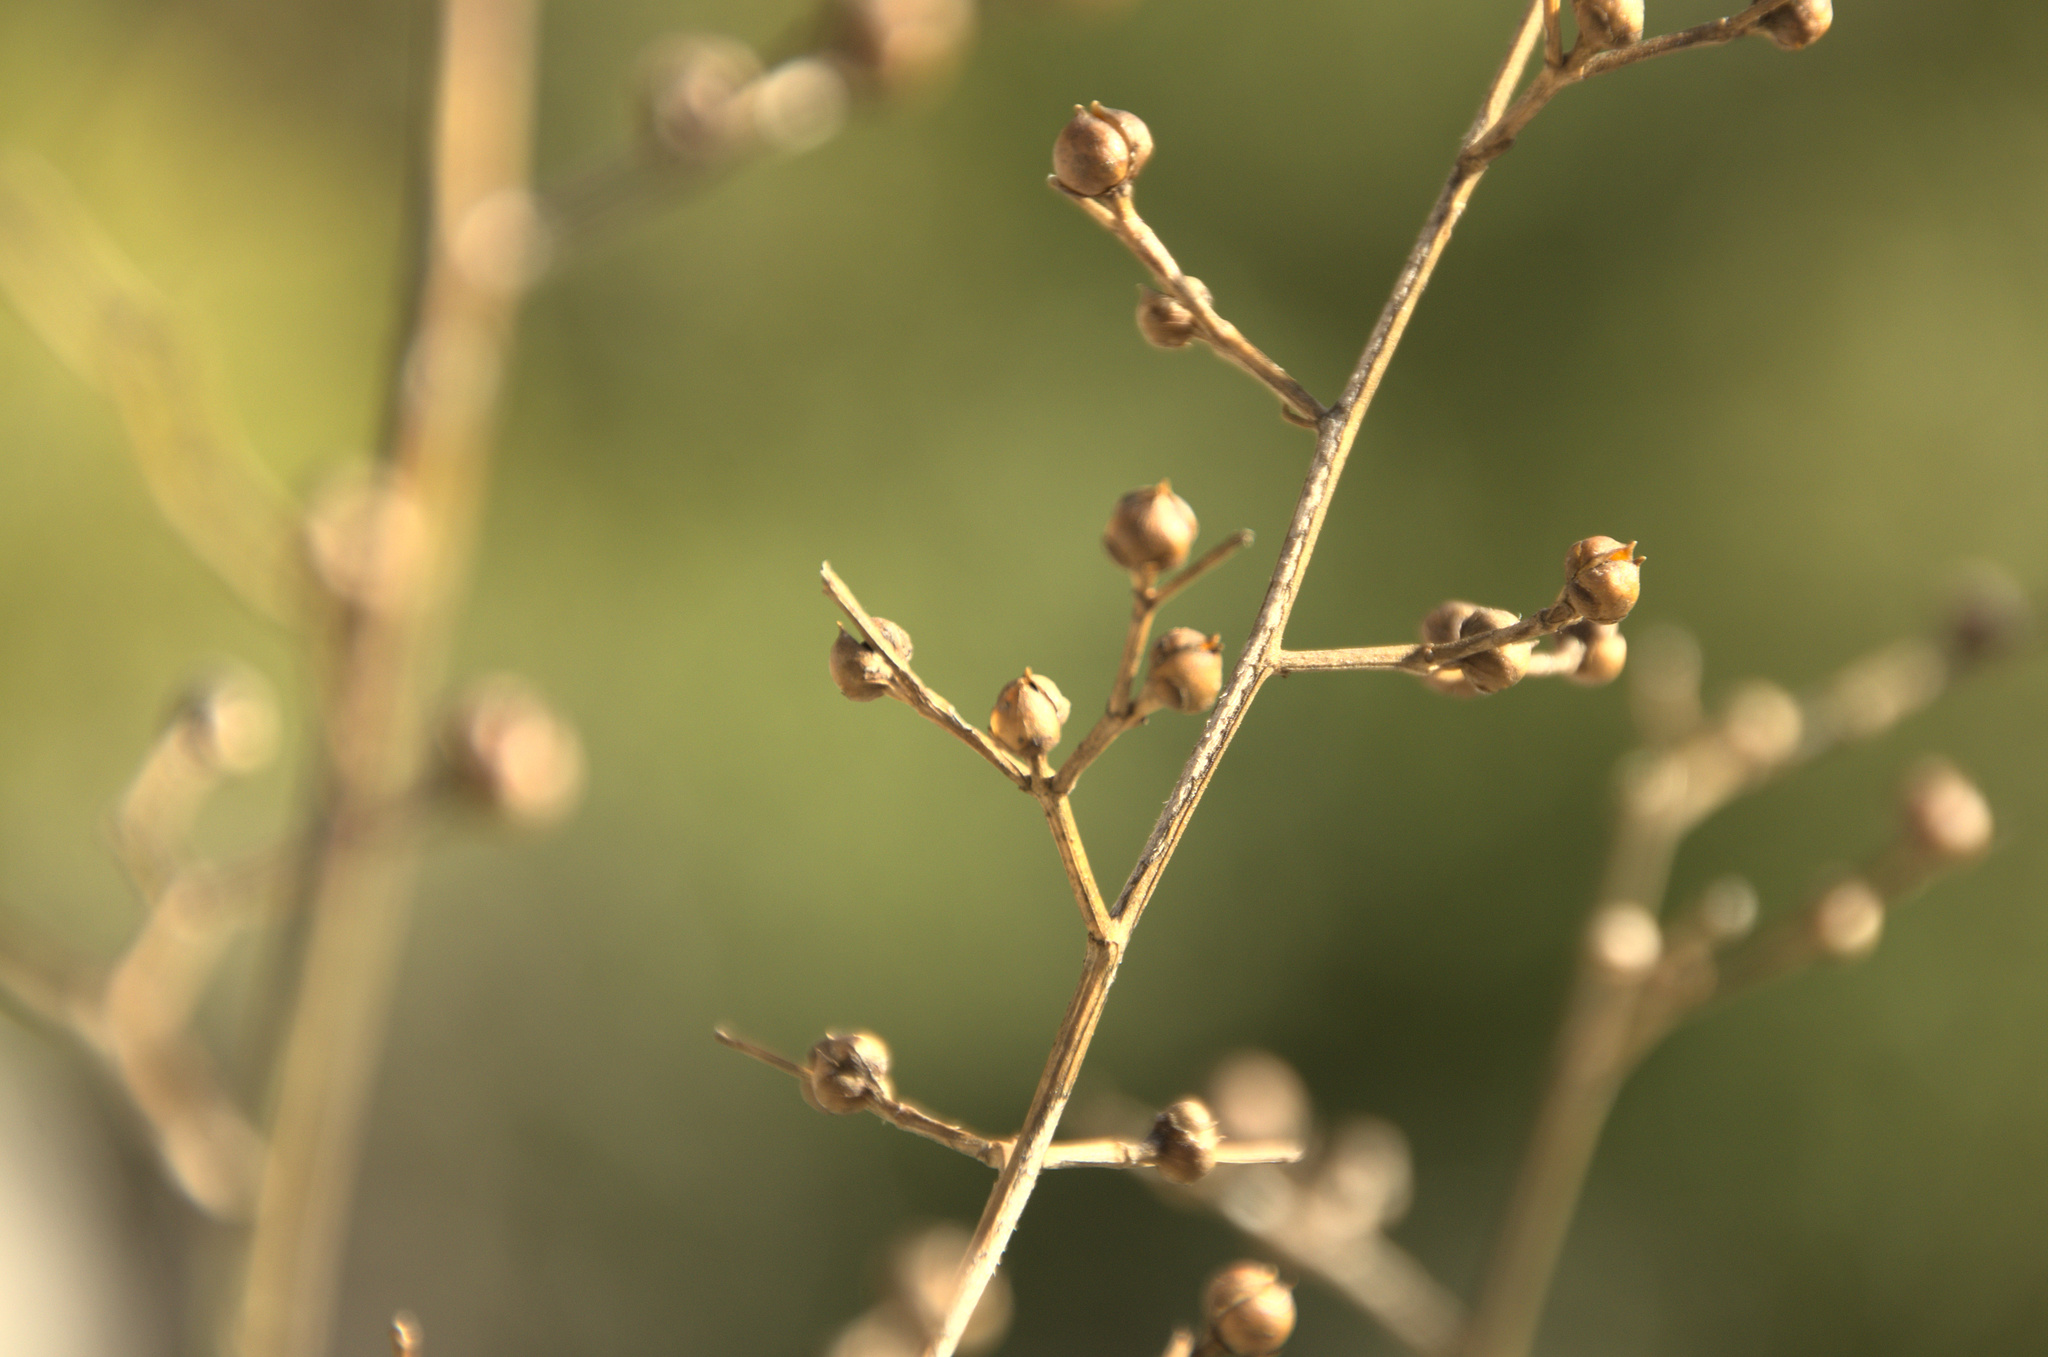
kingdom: Plantae
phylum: Tracheophyta
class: Magnoliopsida
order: Lamiales
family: Scrophulariaceae
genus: Scrophularia
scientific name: Scrophularia canina
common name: French figwort
